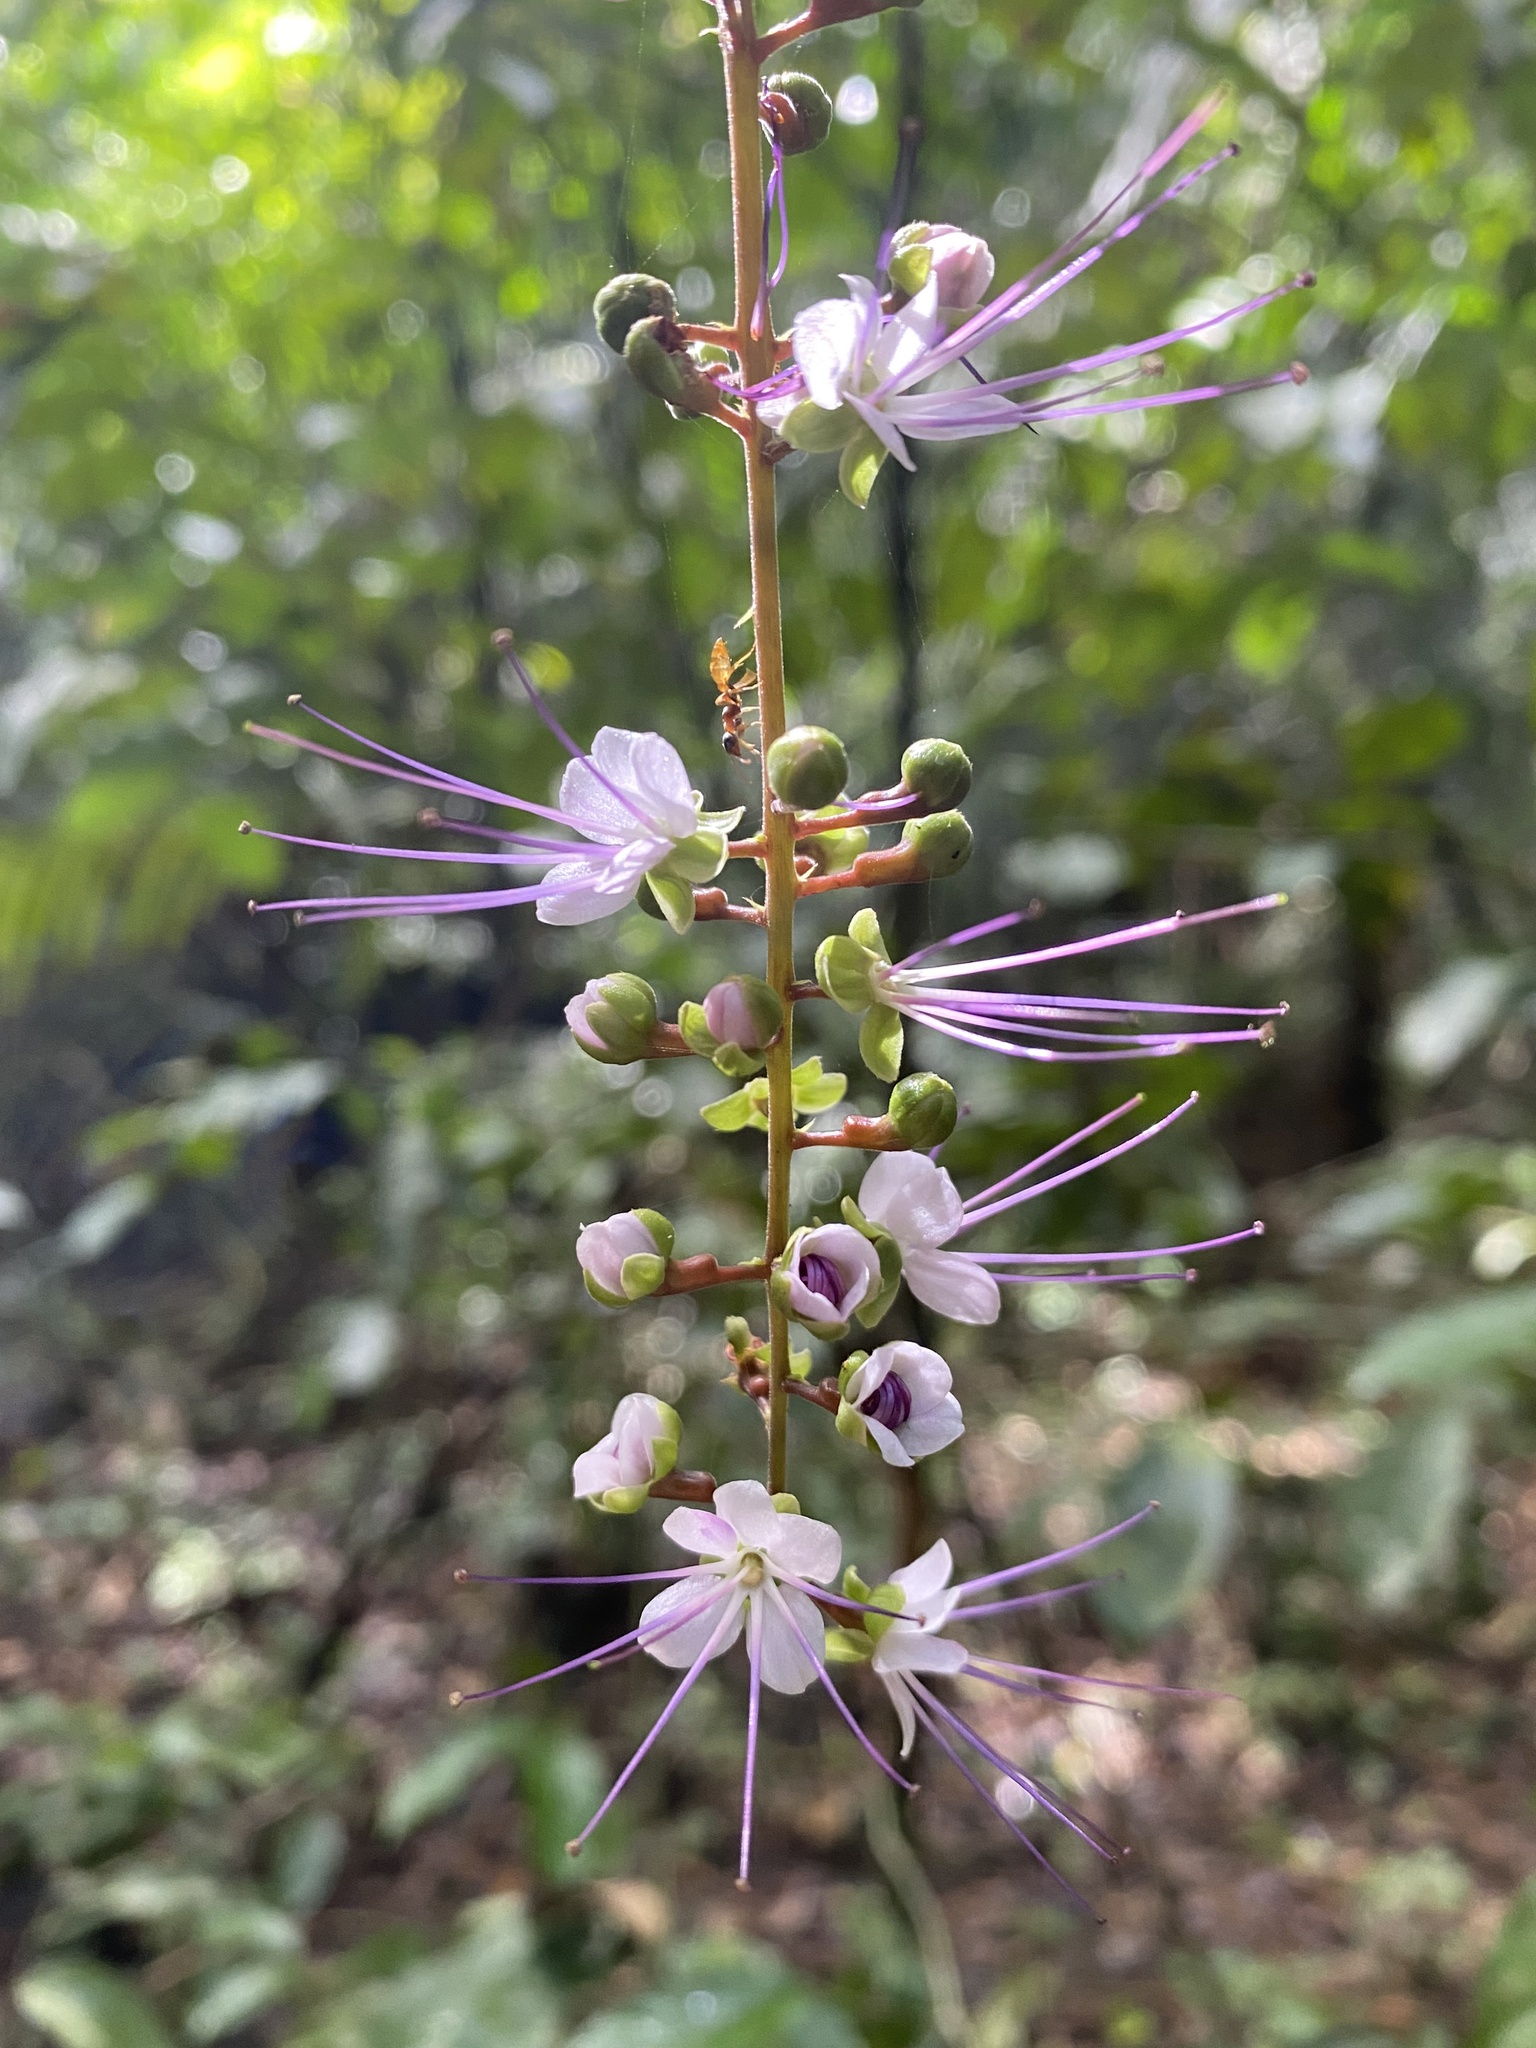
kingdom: Plantae
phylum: Tracheophyta
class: Magnoliopsida
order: Malpighiales
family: Chrysobalanaceae
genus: Hirtella
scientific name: Hirtella racemosa
